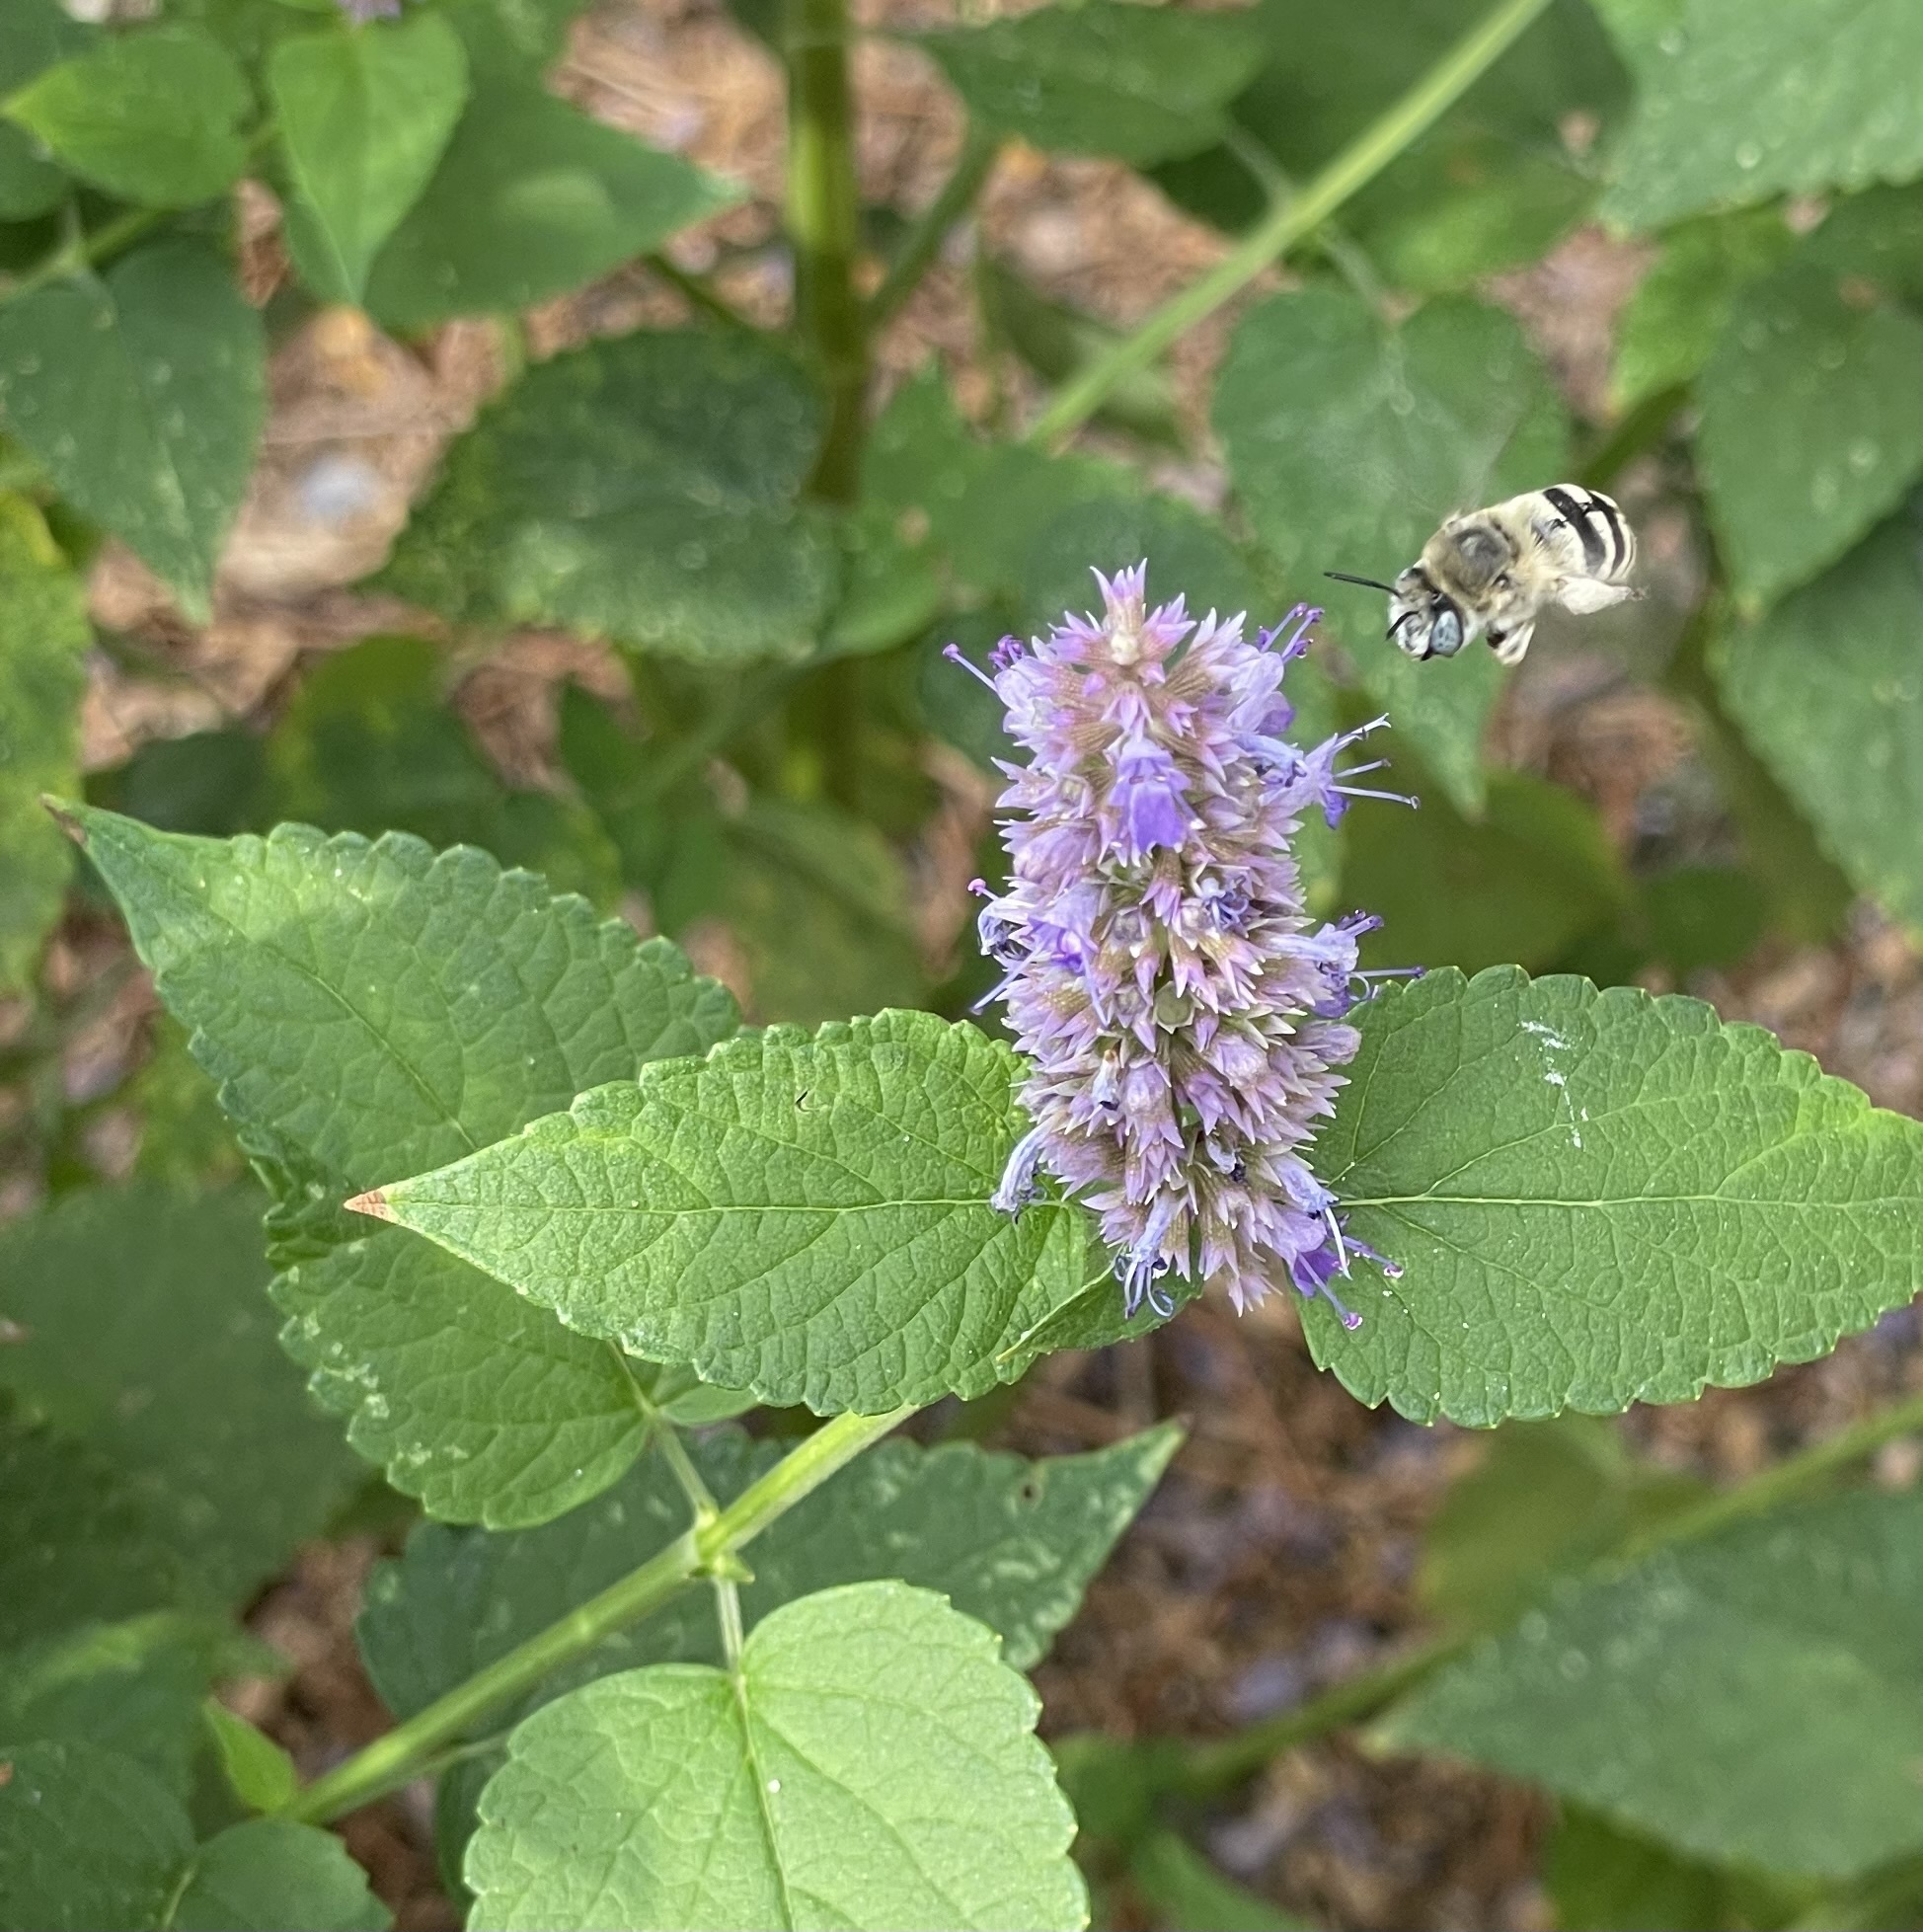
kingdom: Animalia
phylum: Arthropoda
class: Insecta
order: Hymenoptera
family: Apidae
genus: Anthophora
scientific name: Anthophora urbana
